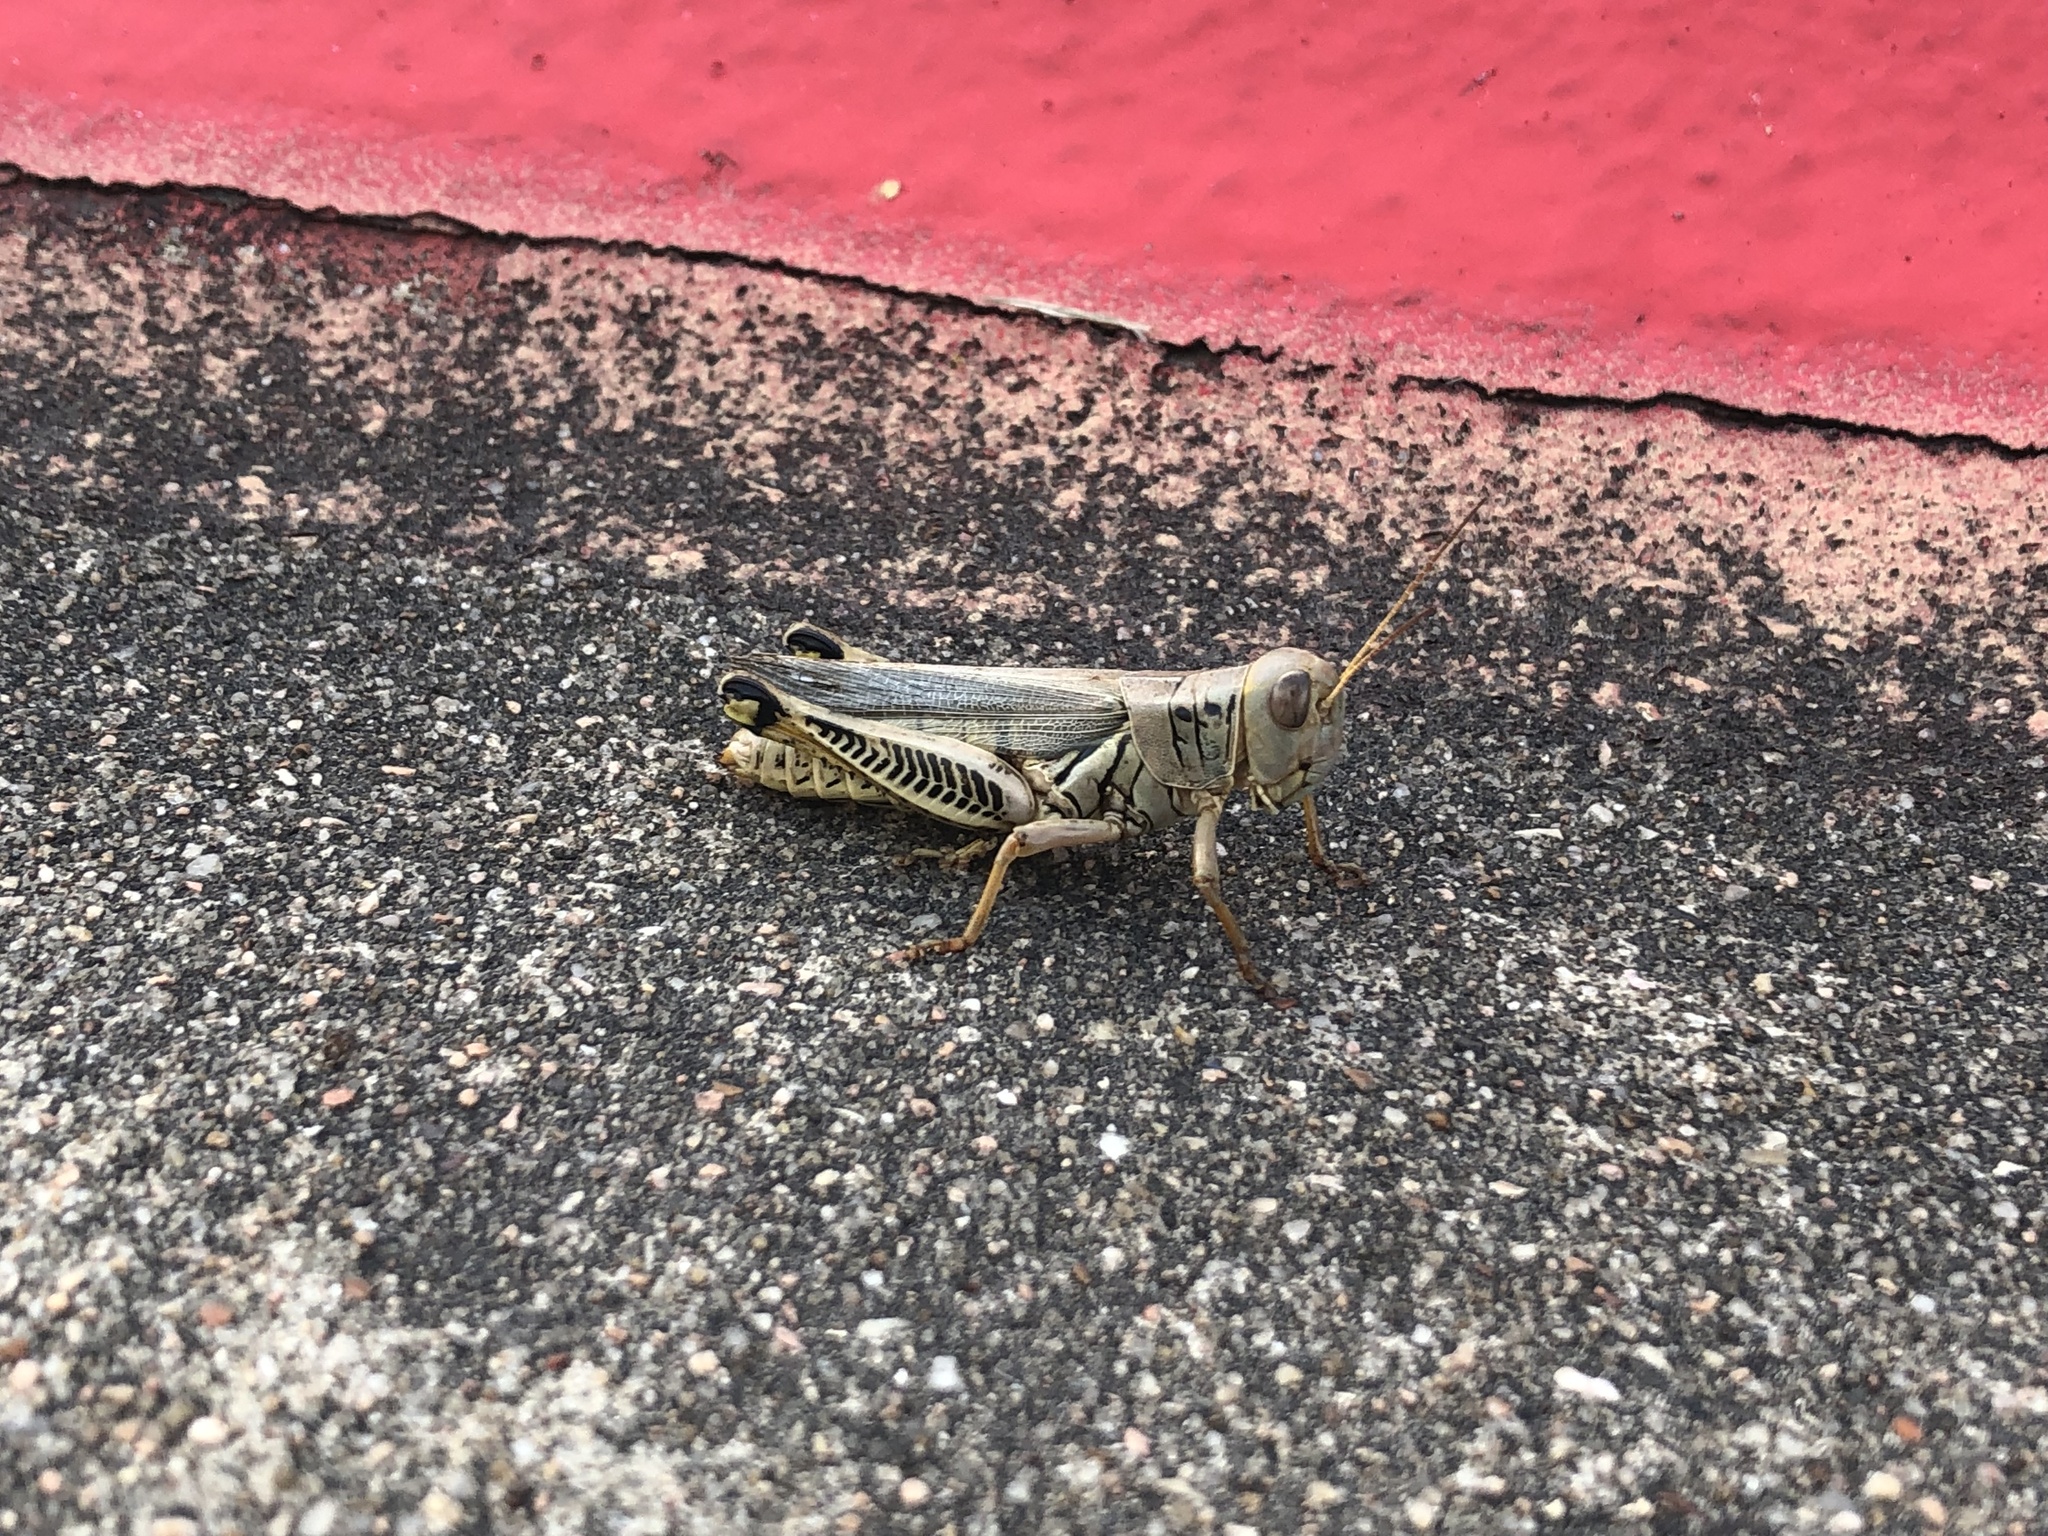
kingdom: Animalia
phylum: Arthropoda
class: Insecta
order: Orthoptera
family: Acrididae
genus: Melanoplus
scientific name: Melanoplus differentialis
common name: Differential grasshopper
